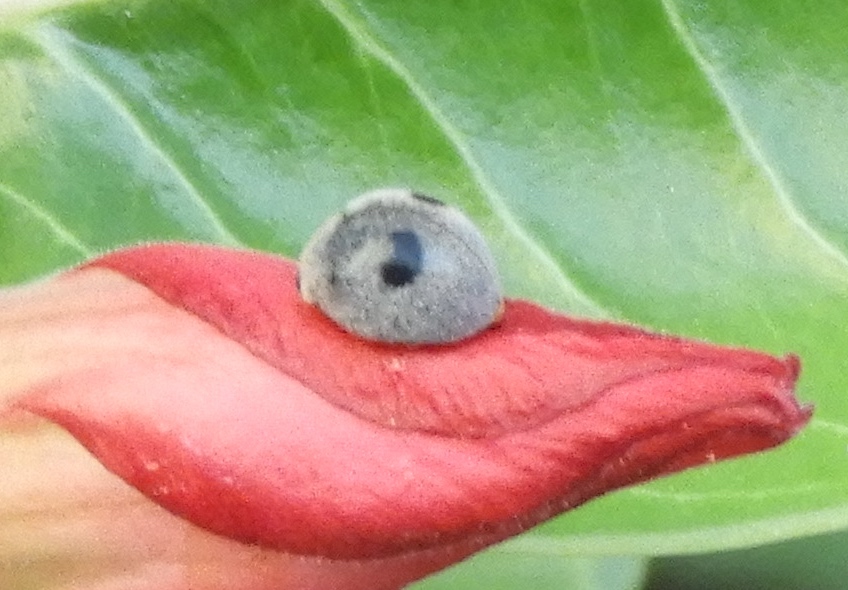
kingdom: Animalia
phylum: Arthropoda
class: Insecta
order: Coleoptera
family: Coccinellidae
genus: Azya
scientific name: Azya
